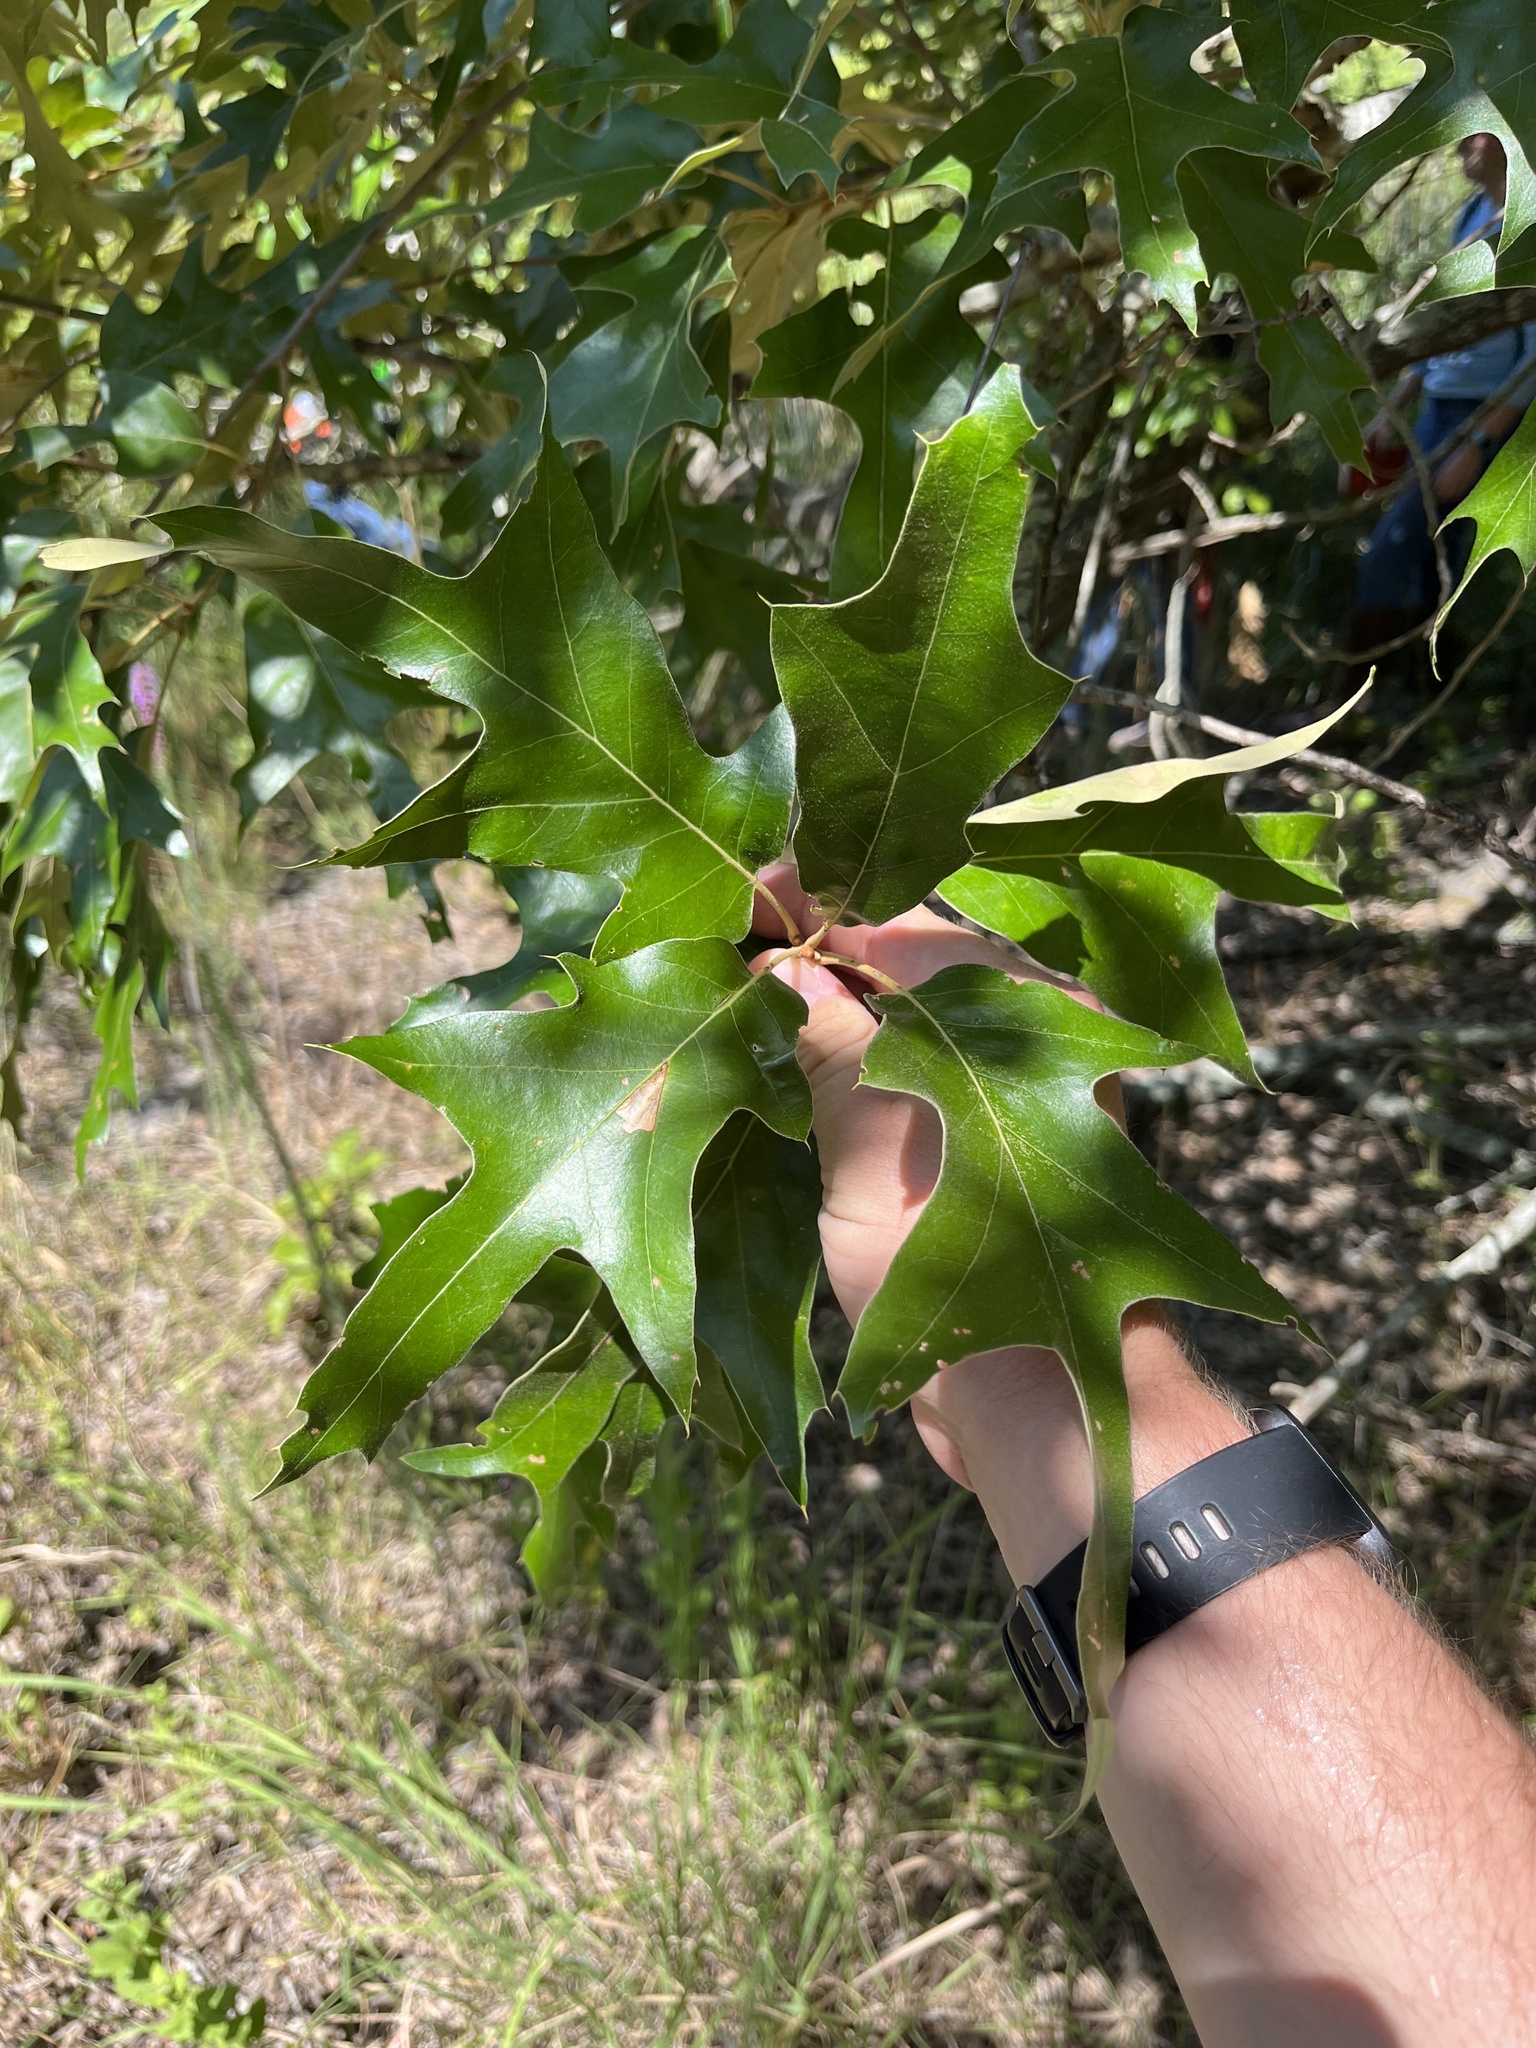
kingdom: Plantae
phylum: Tracheophyta
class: Magnoliopsida
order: Fagales
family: Fagaceae
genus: Quercus
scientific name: Quercus falcata
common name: Southern red oak
